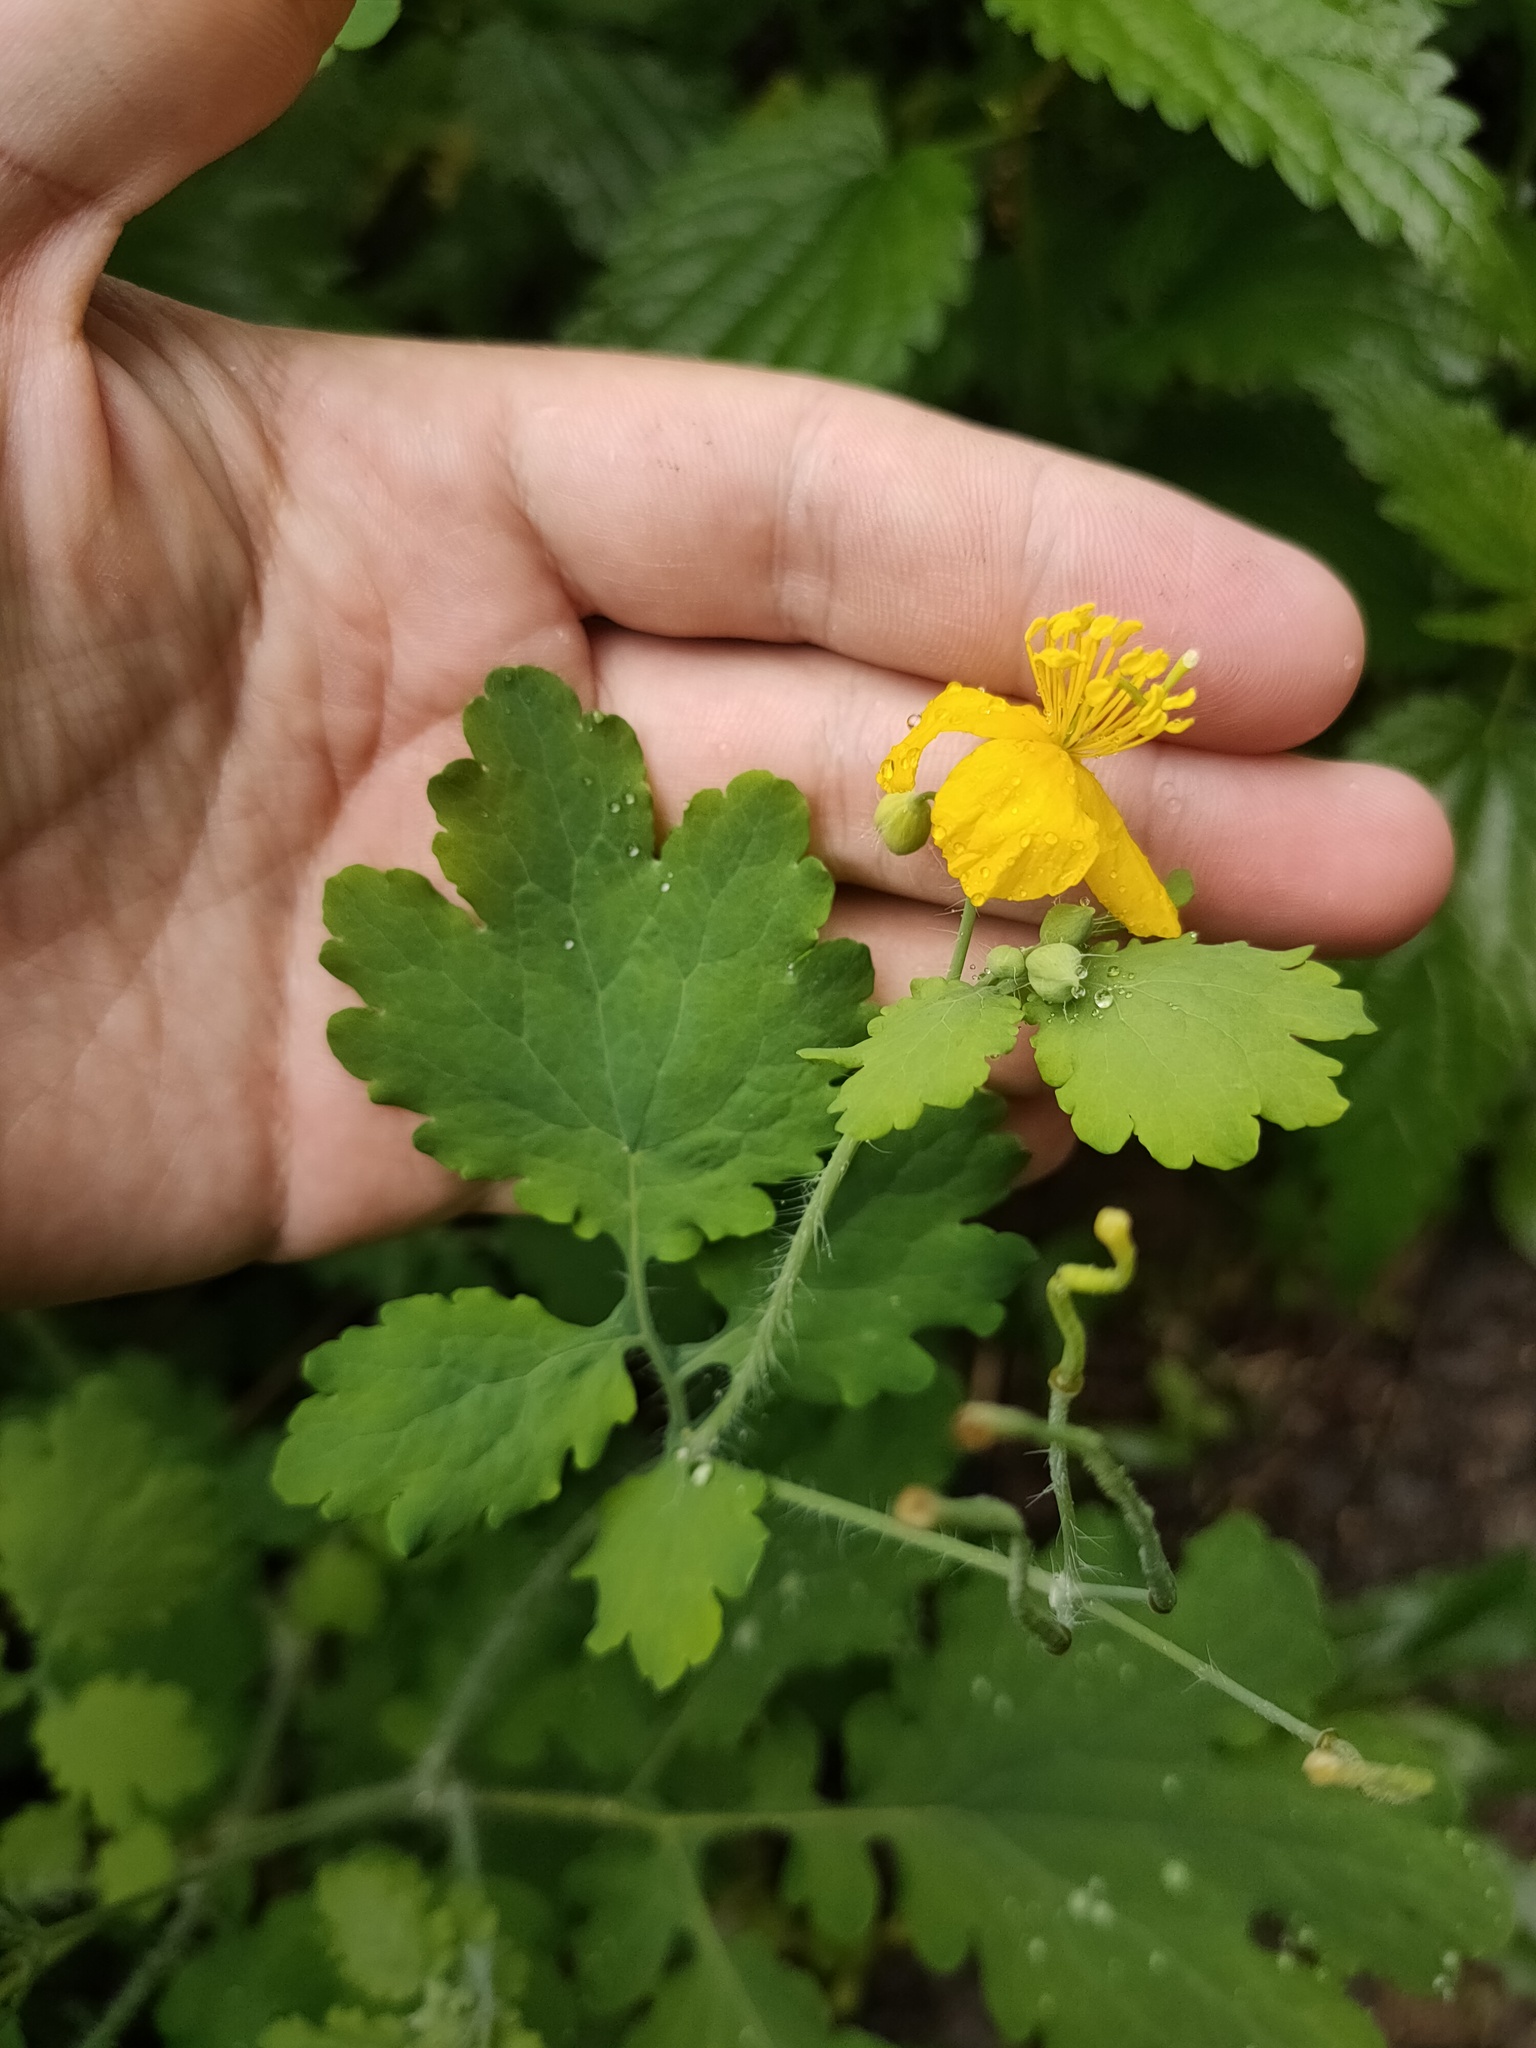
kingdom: Plantae
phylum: Tracheophyta
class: Magnoliopsida
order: Ranunculales
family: Papaveraceae
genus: Chelidonium
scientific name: Chelidonium majus
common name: Greater celandine
